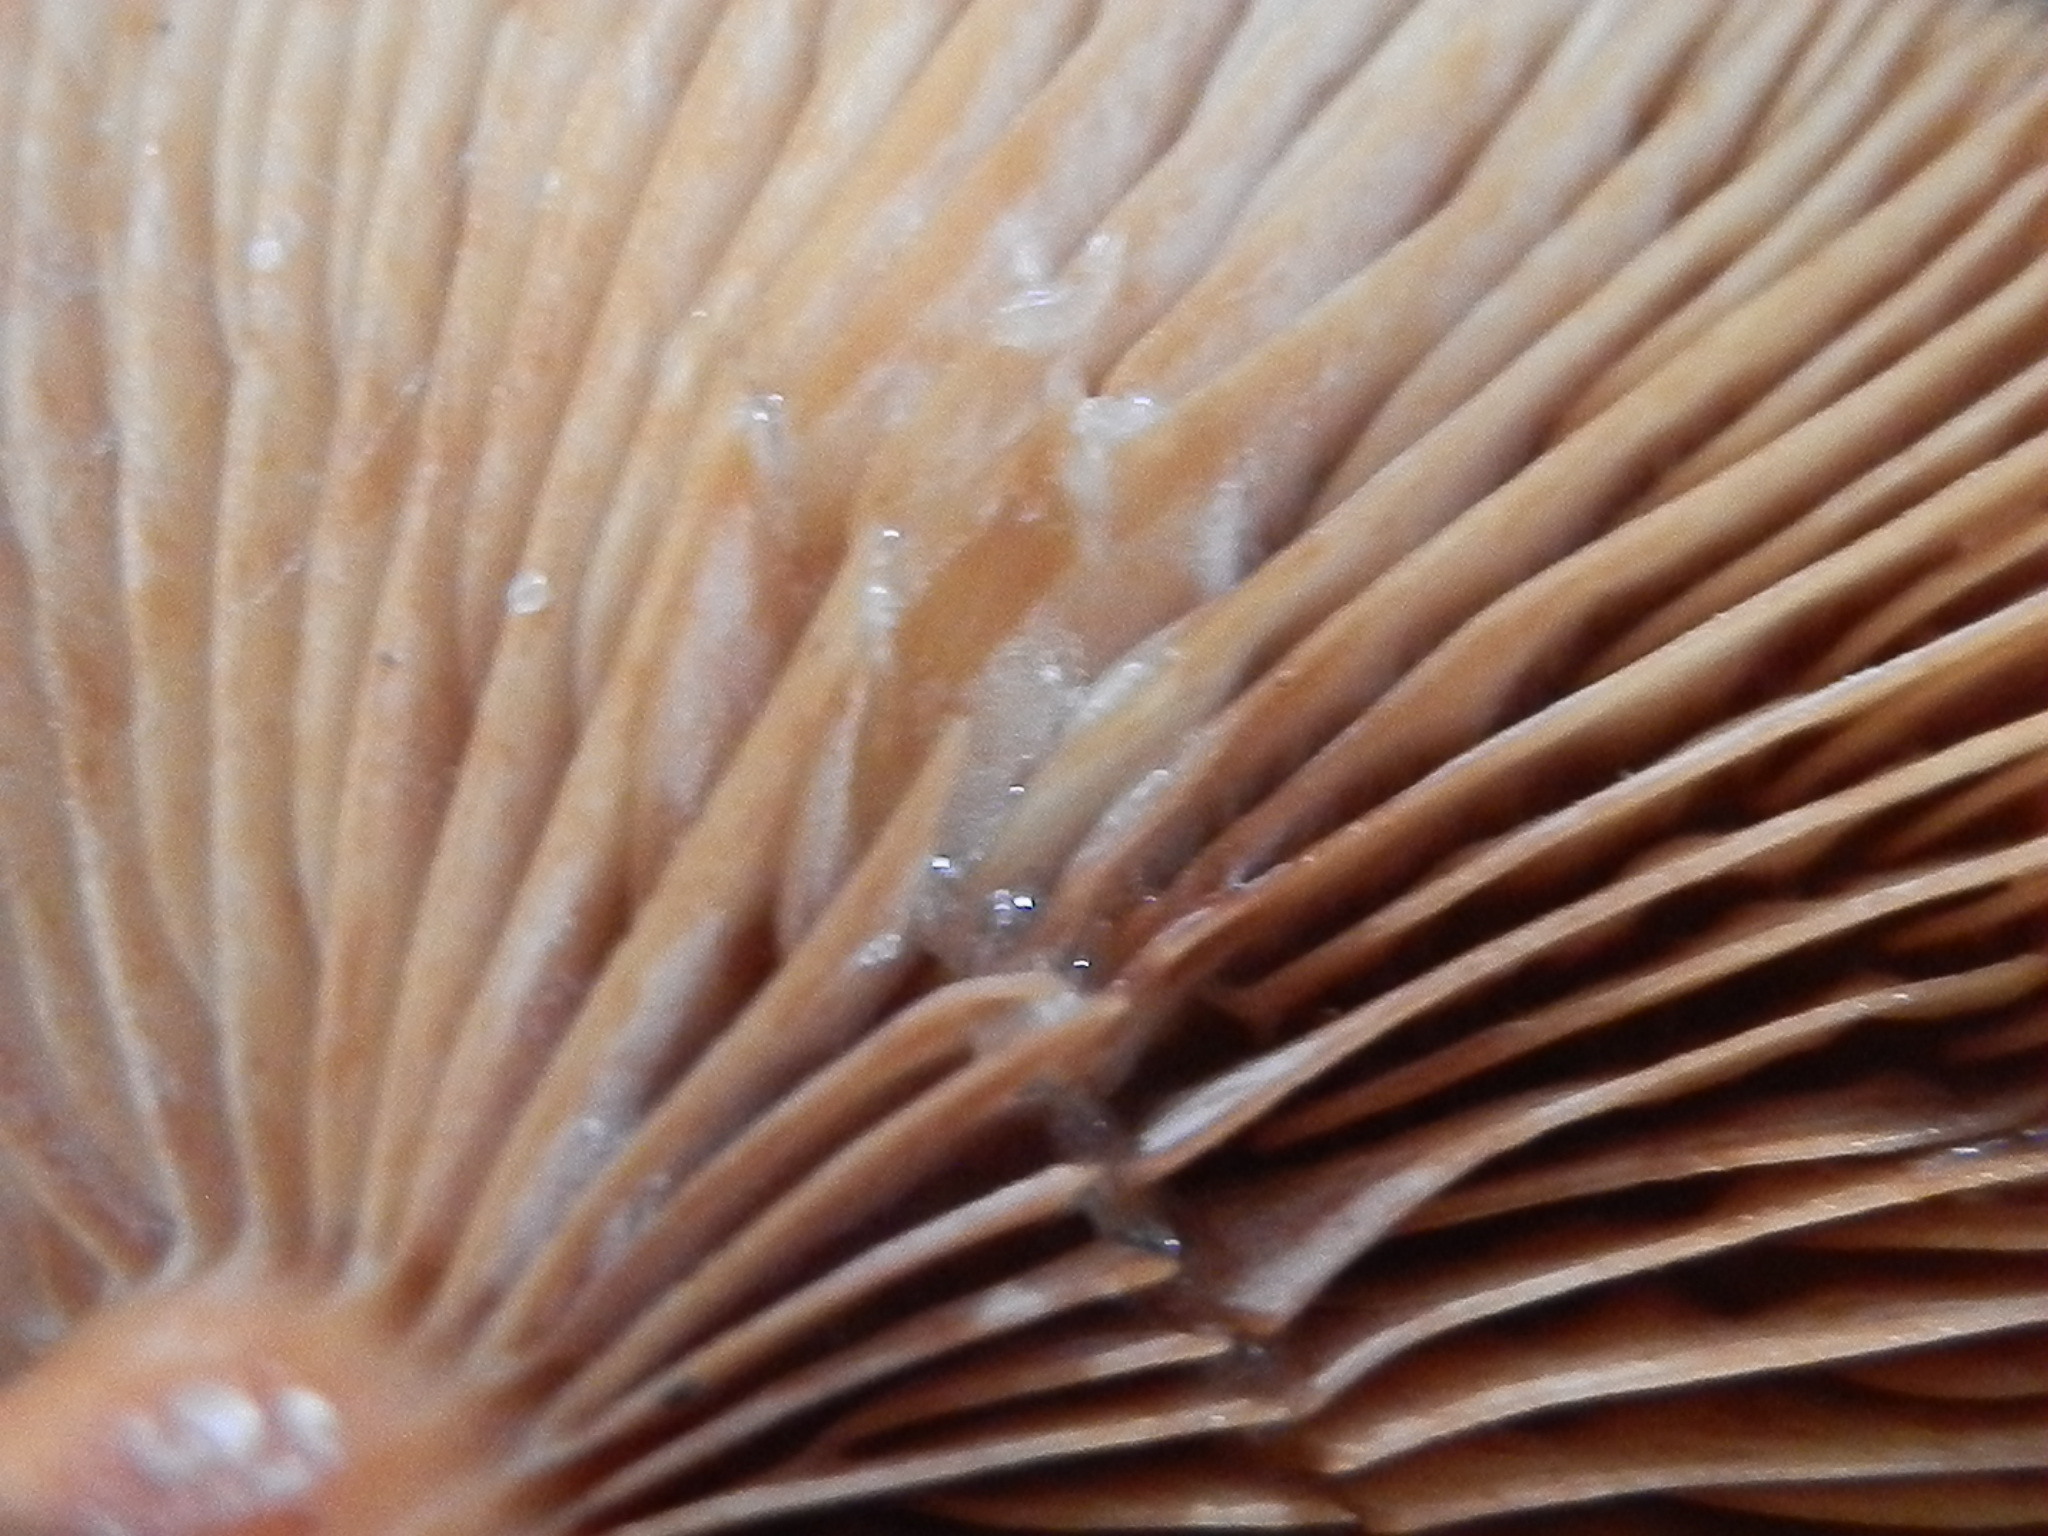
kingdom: Fungi
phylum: Basidiomycota
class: Agaricomycetes
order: Russulales
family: Russulaceae
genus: Lactarius
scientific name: Lactarius rubidus
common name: Candy cap
